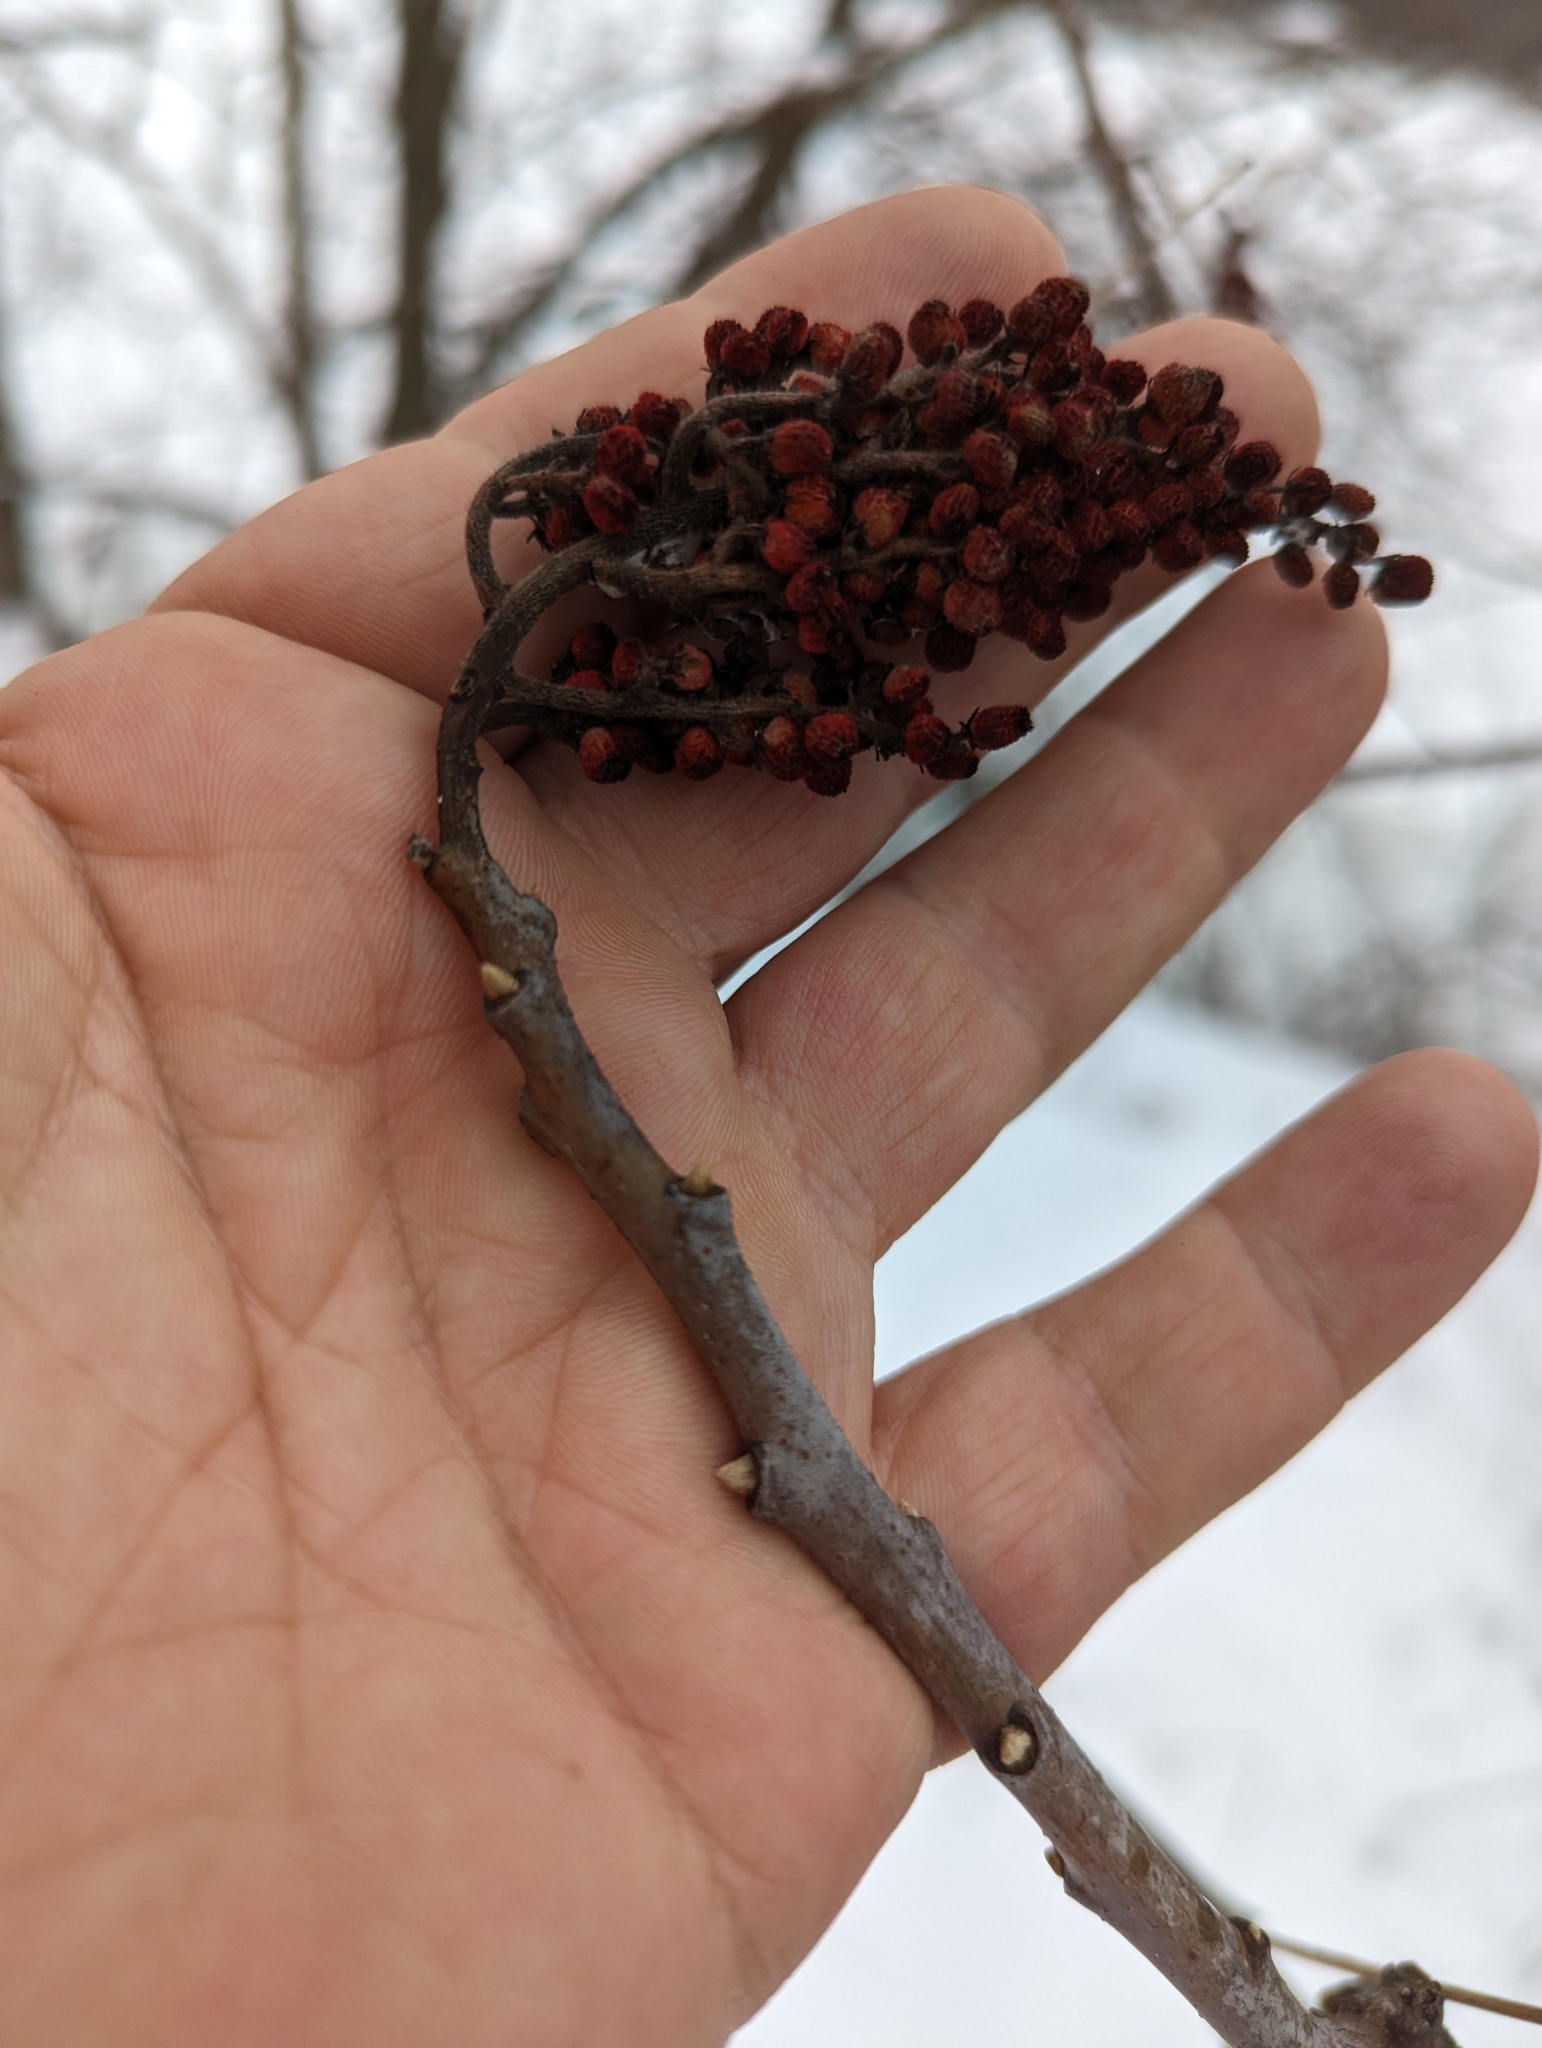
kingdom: Plantae
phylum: Tracheophyta
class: Magnoliopsida
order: Sapindales
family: Anacardiaceae
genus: Rhus
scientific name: Rhus glabra
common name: Scarlet sumac
